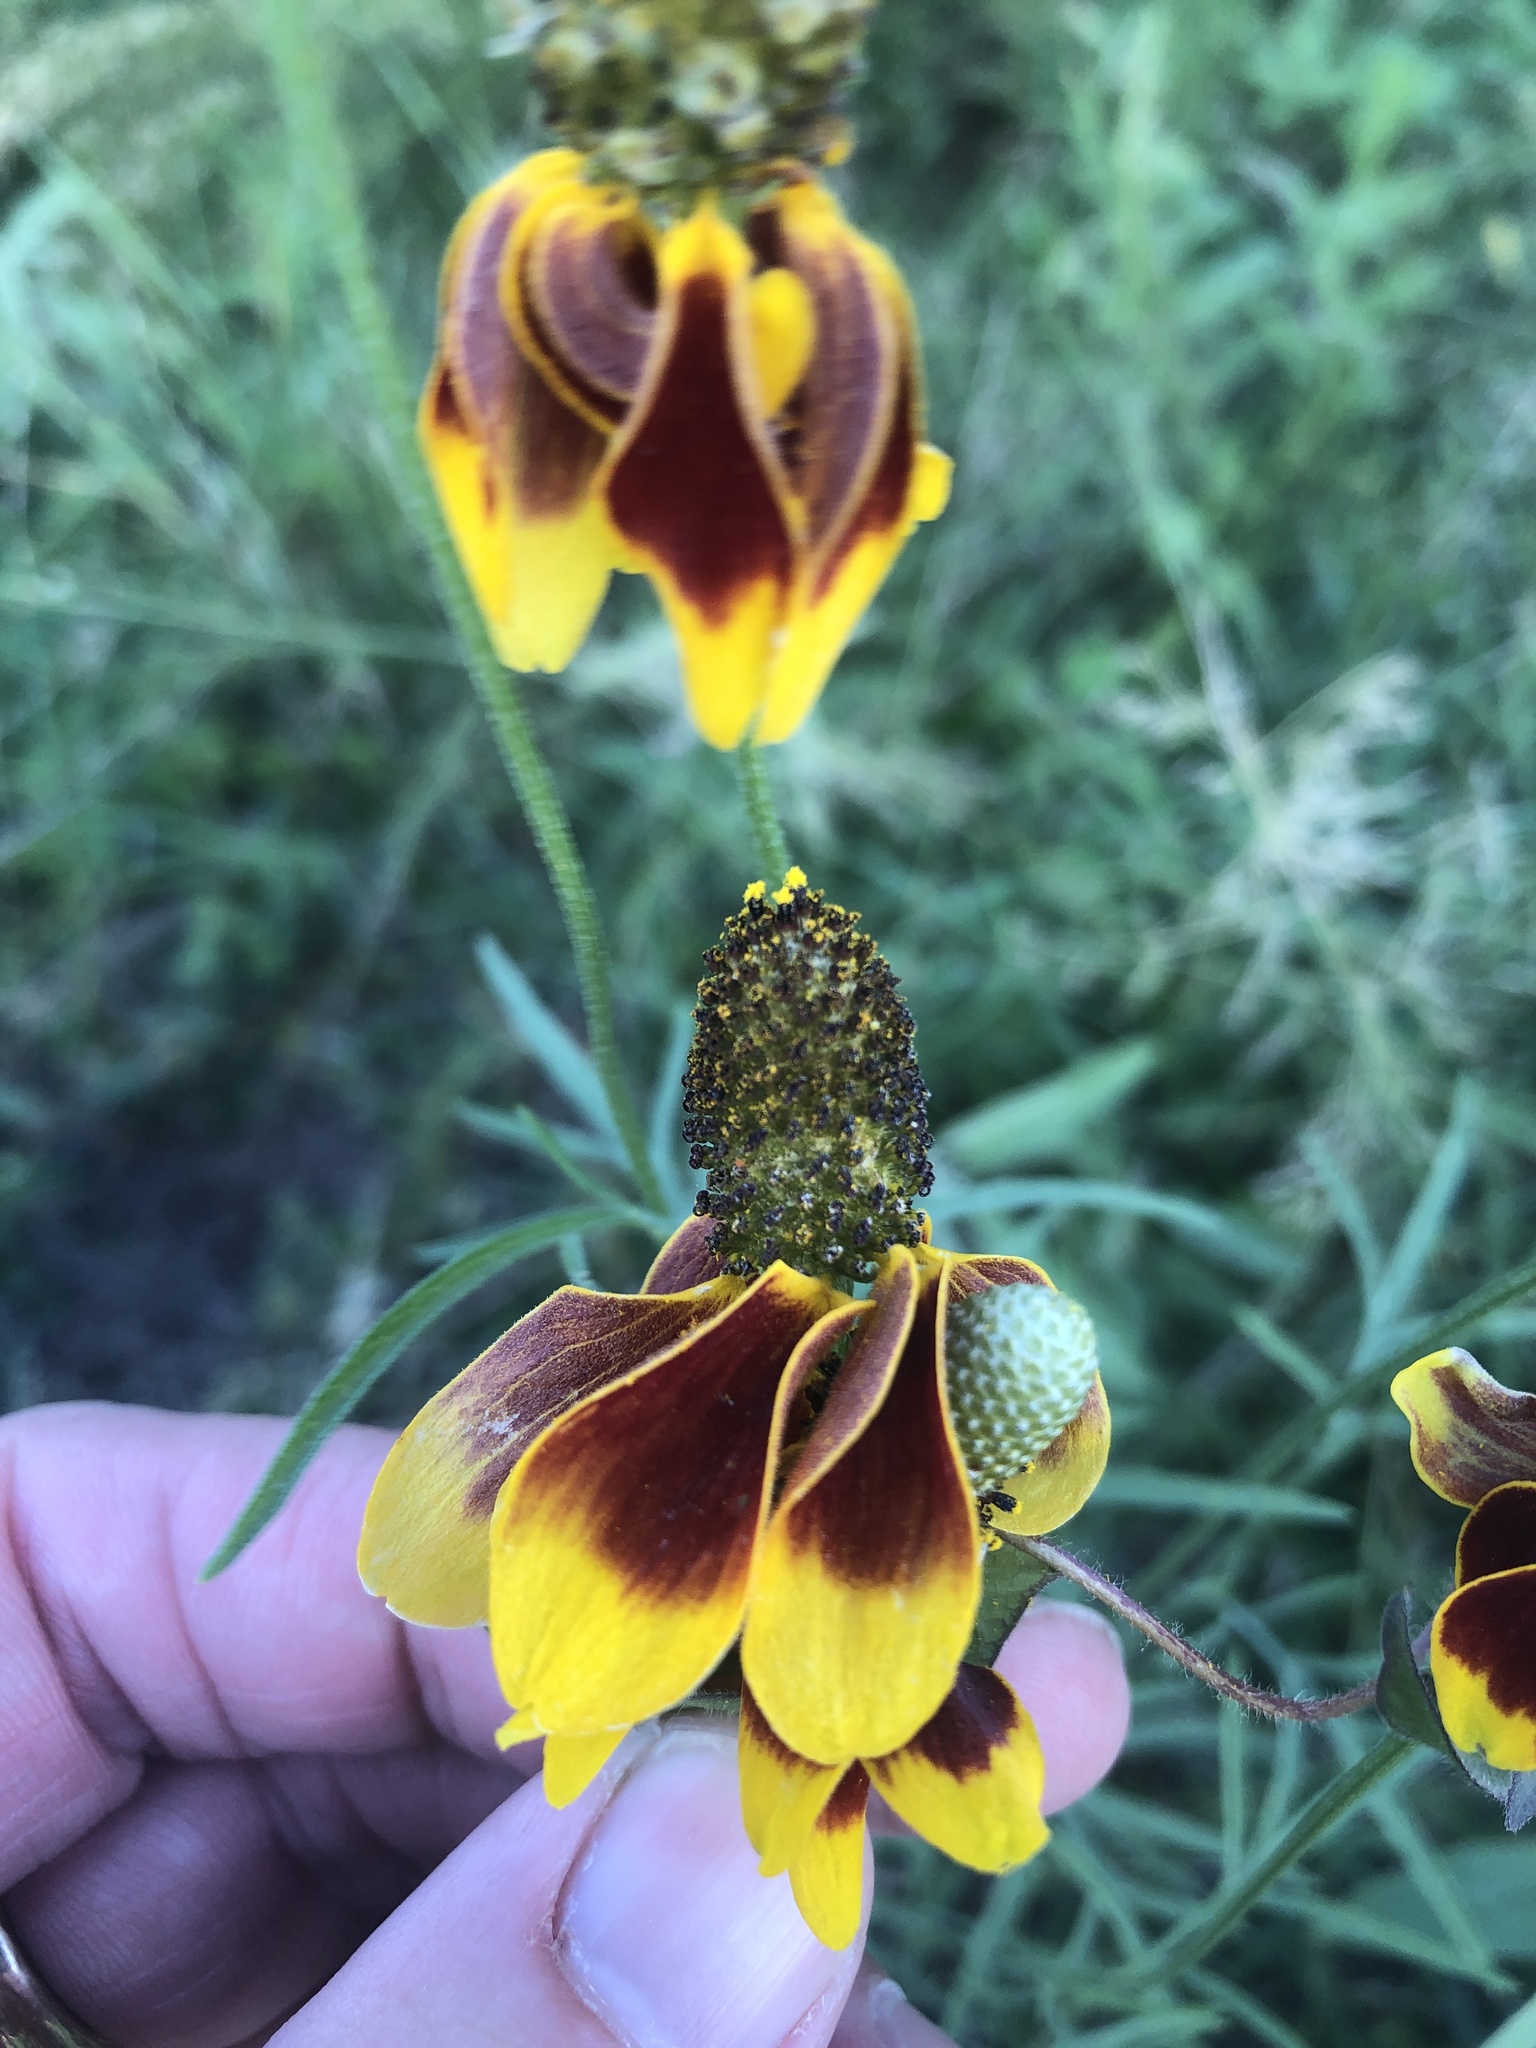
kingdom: Plantae
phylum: Tracheophyta
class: Magnoliopsida
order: Asterales
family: Asteraceae
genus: Ratibida
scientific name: Ratibida columnifera
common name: Prairie coneflower
